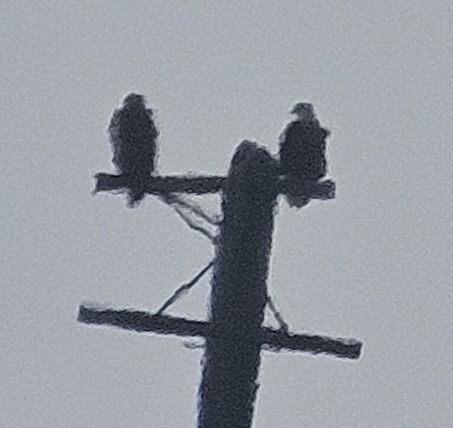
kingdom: Animalia
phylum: Chordata
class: Aves
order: Accipitriformes
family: Accipitridae
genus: Haliaeetus
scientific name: Haliaeetus leucocephalus
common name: Bald eagle
